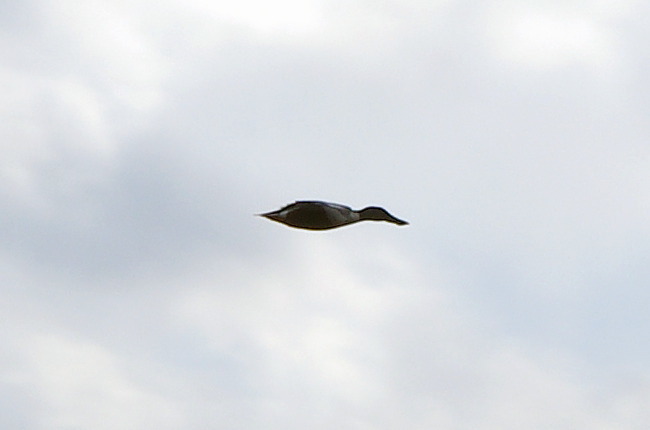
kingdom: Animalia
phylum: Chordata
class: Aves
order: Anseriformes
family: Anatidae
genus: Spatula
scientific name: Spatula clypeata
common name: Northern shoveler
